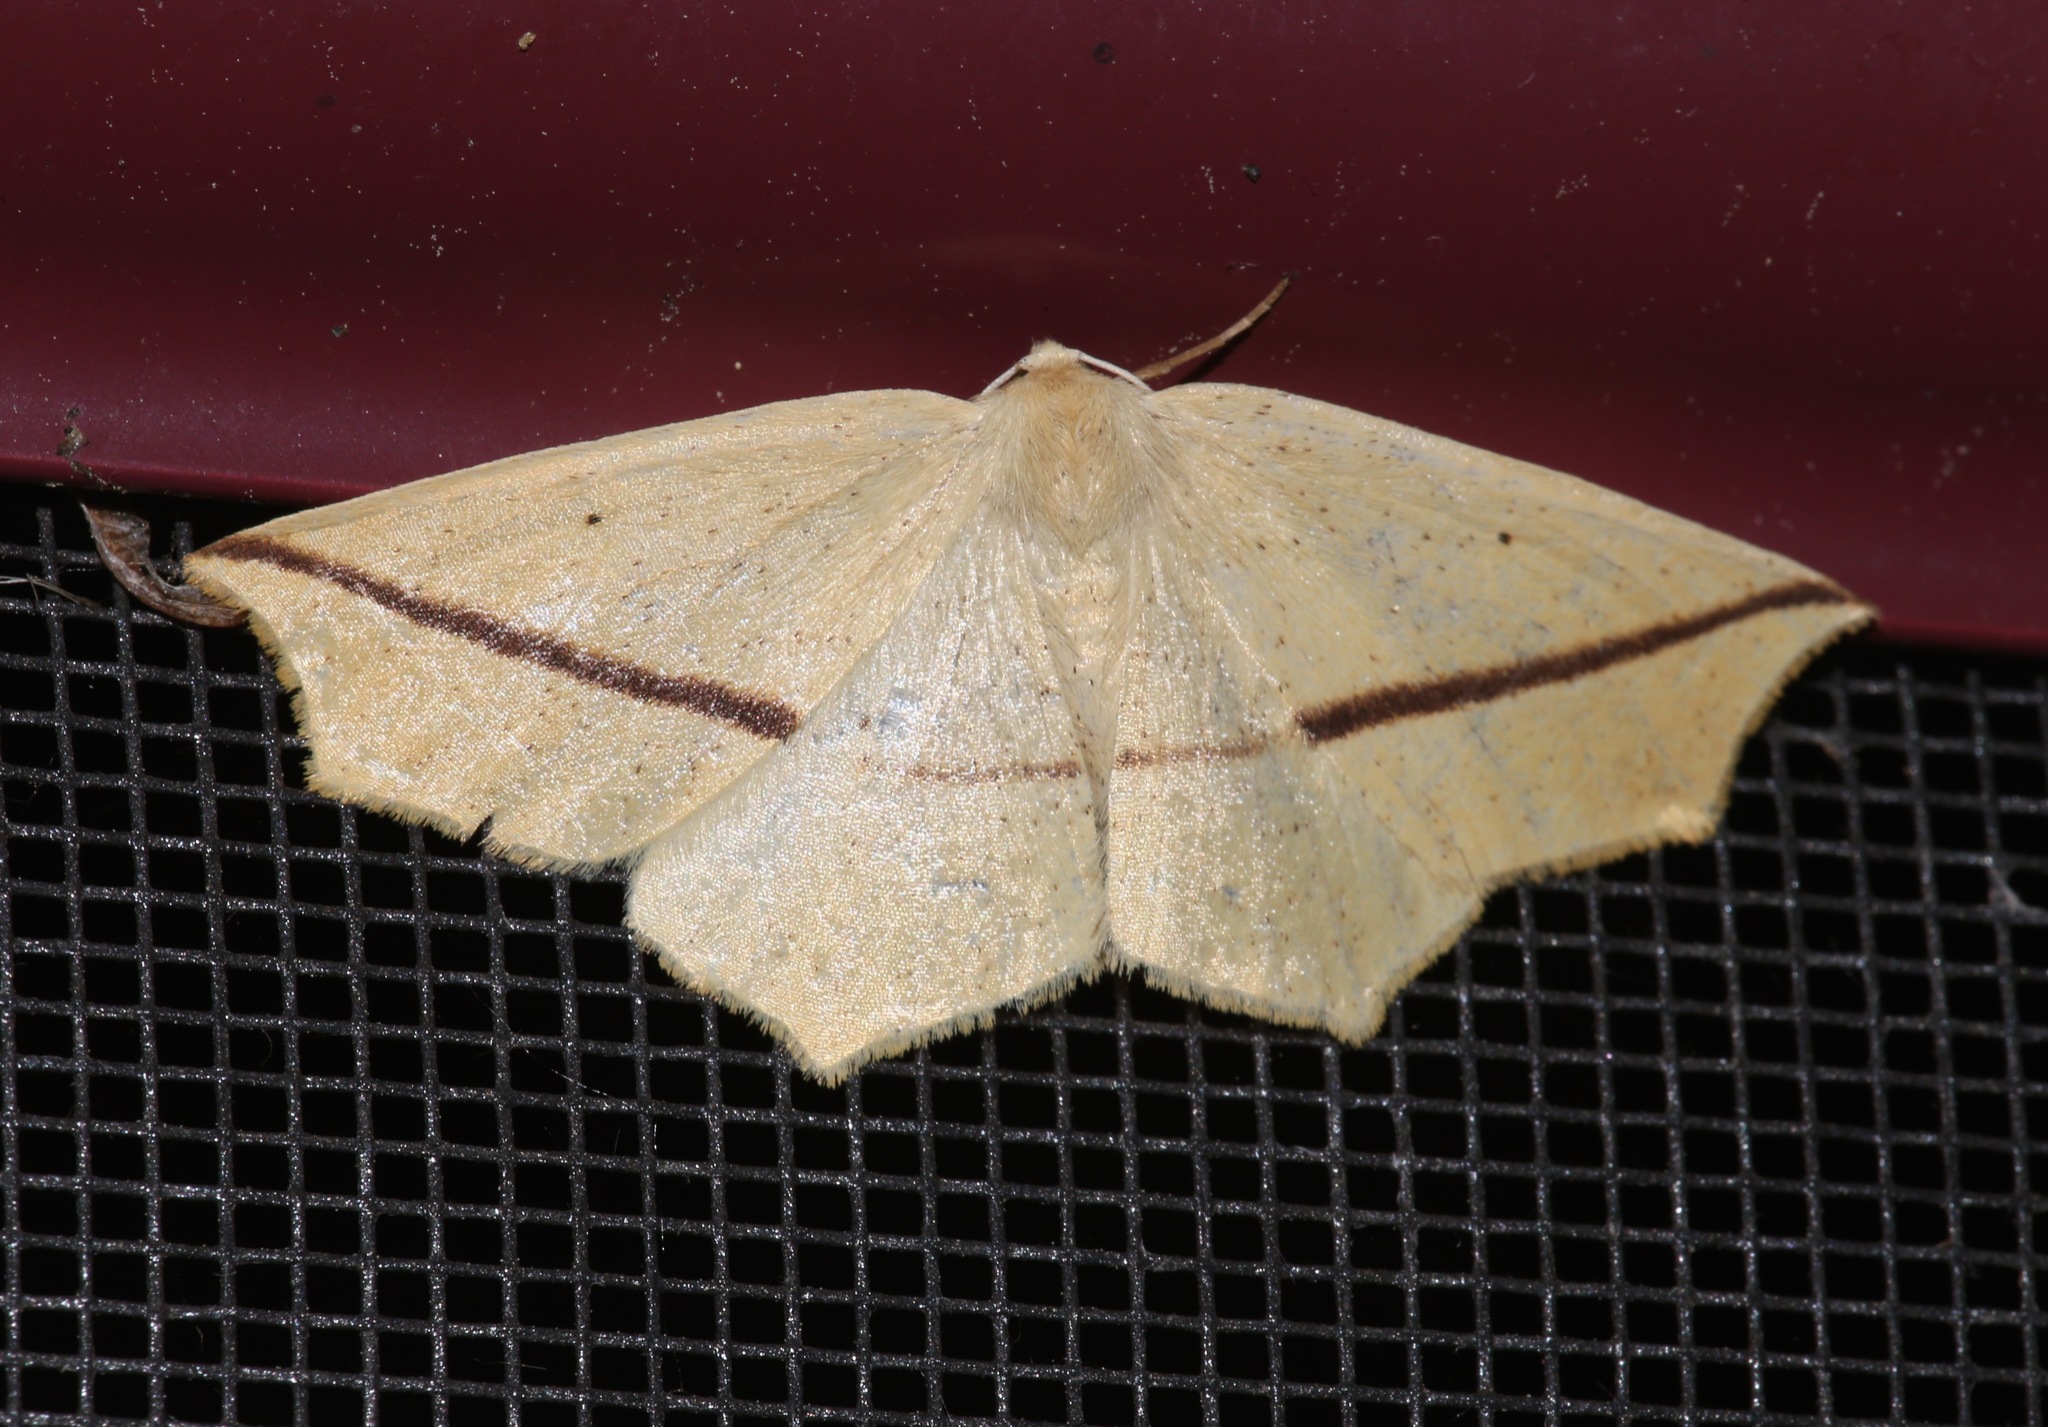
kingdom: Animalia
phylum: Arthropoda
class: Insecta
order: Lepidoptera
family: Geometridae
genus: Tetracis
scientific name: Tetracis crocallata
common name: Yellow slant-line
